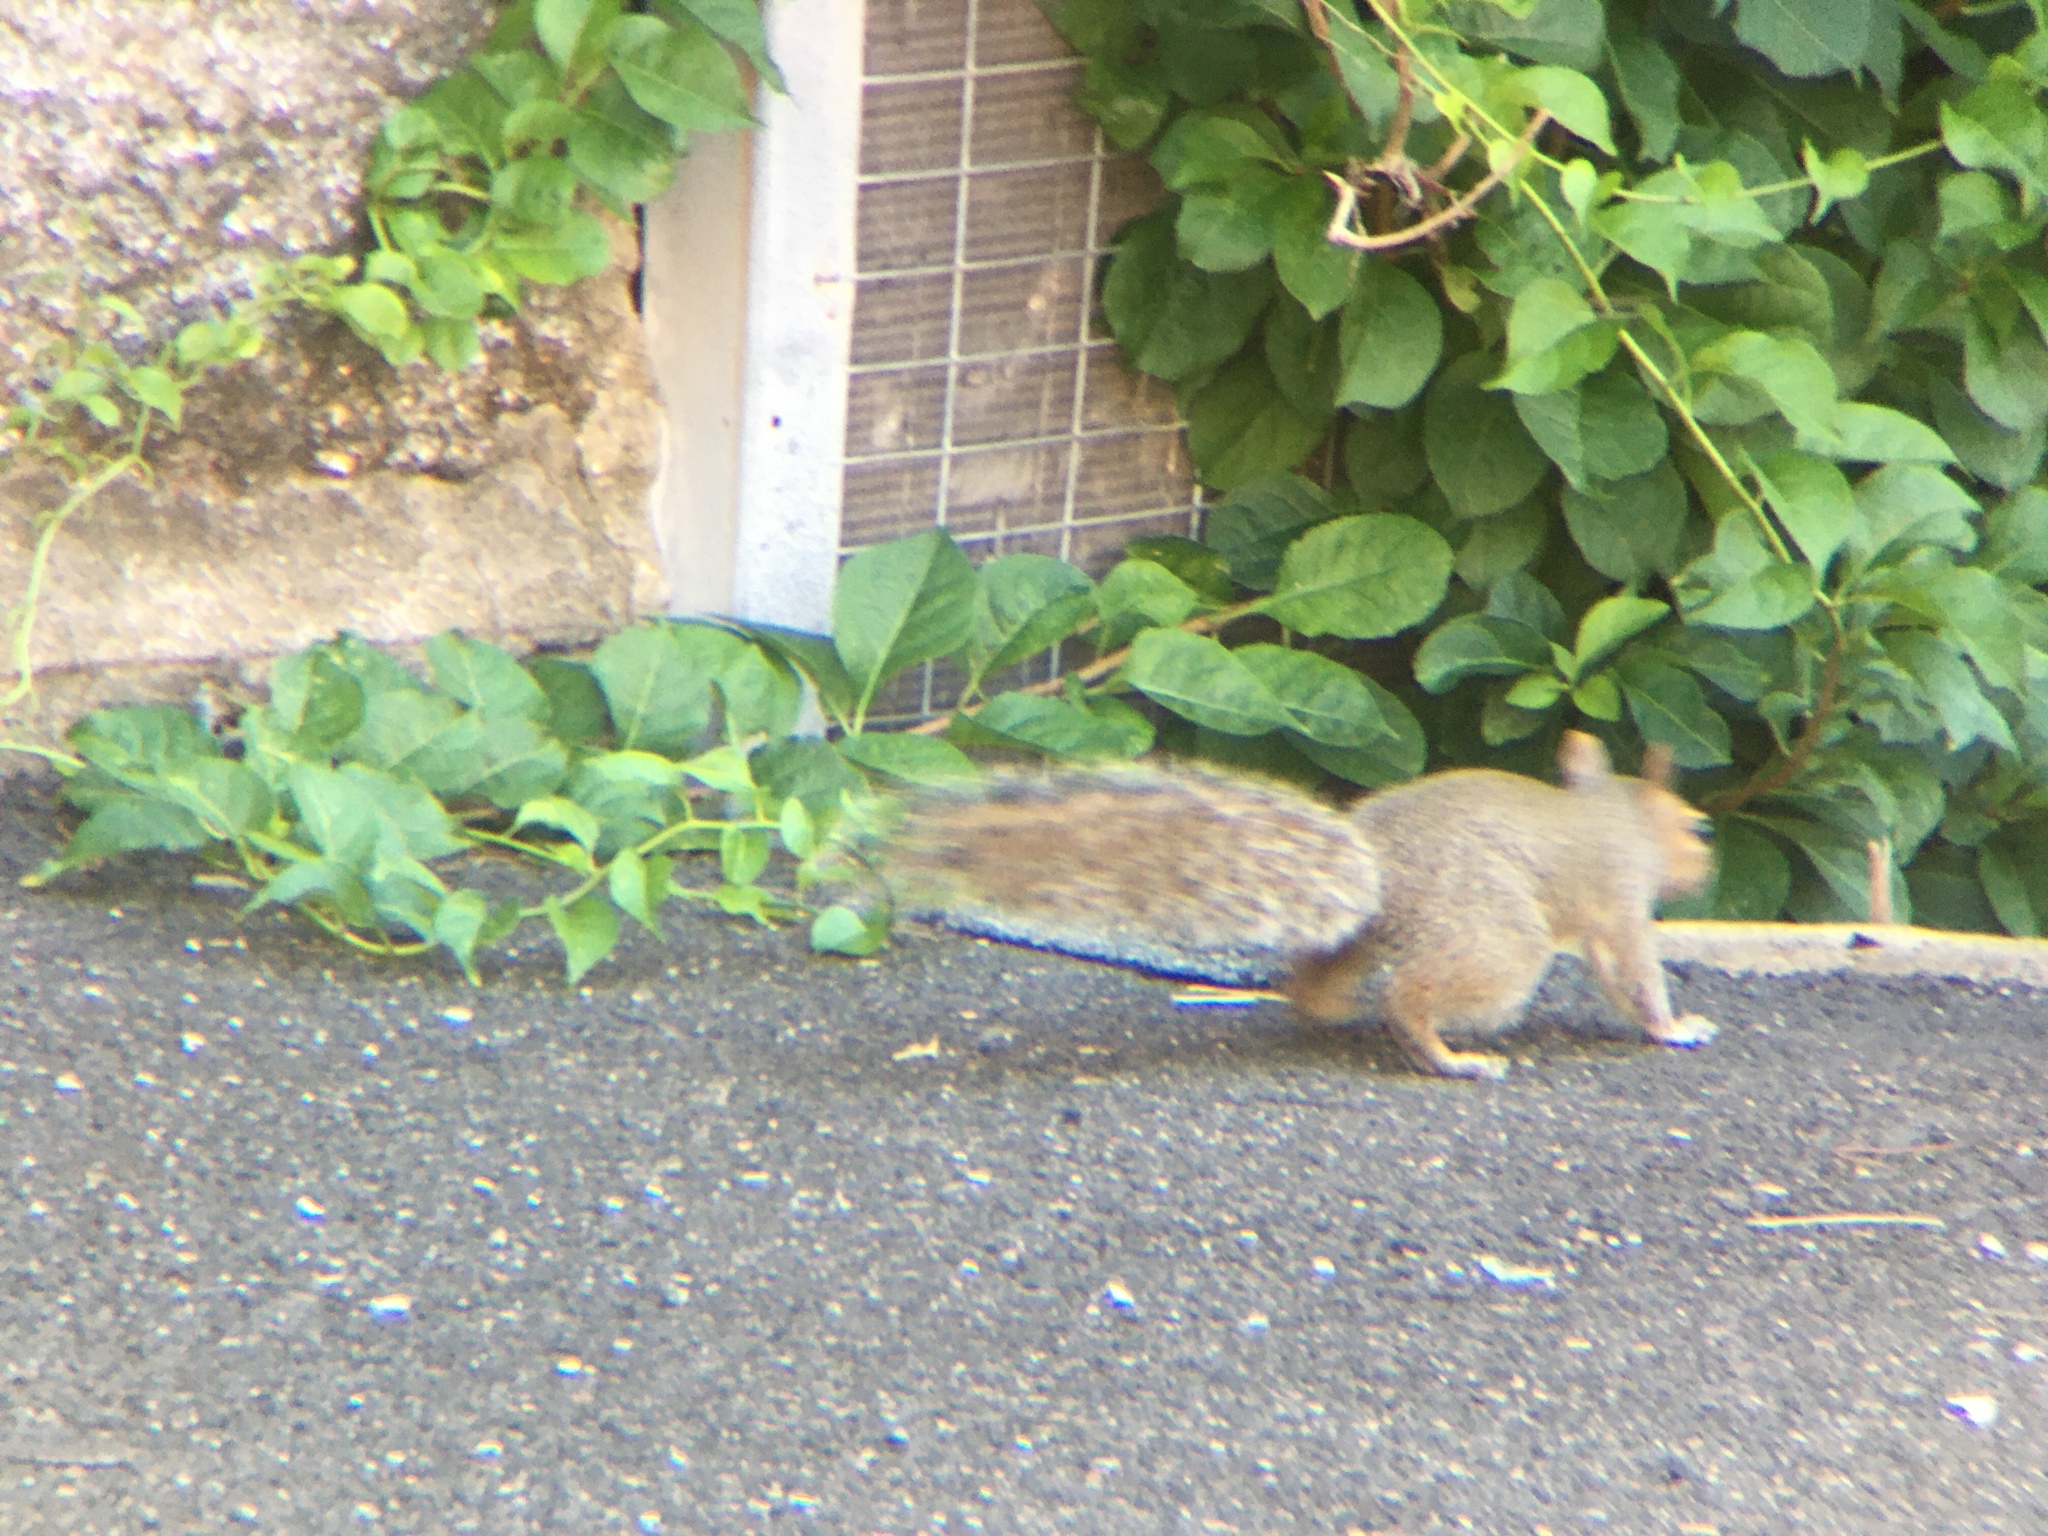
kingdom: Animalia
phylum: Chordata
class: Mammalia
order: Rodentia
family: Sciuridae
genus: Sciurus
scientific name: Sciurus carolinensis
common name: Eastern gray squirrel
